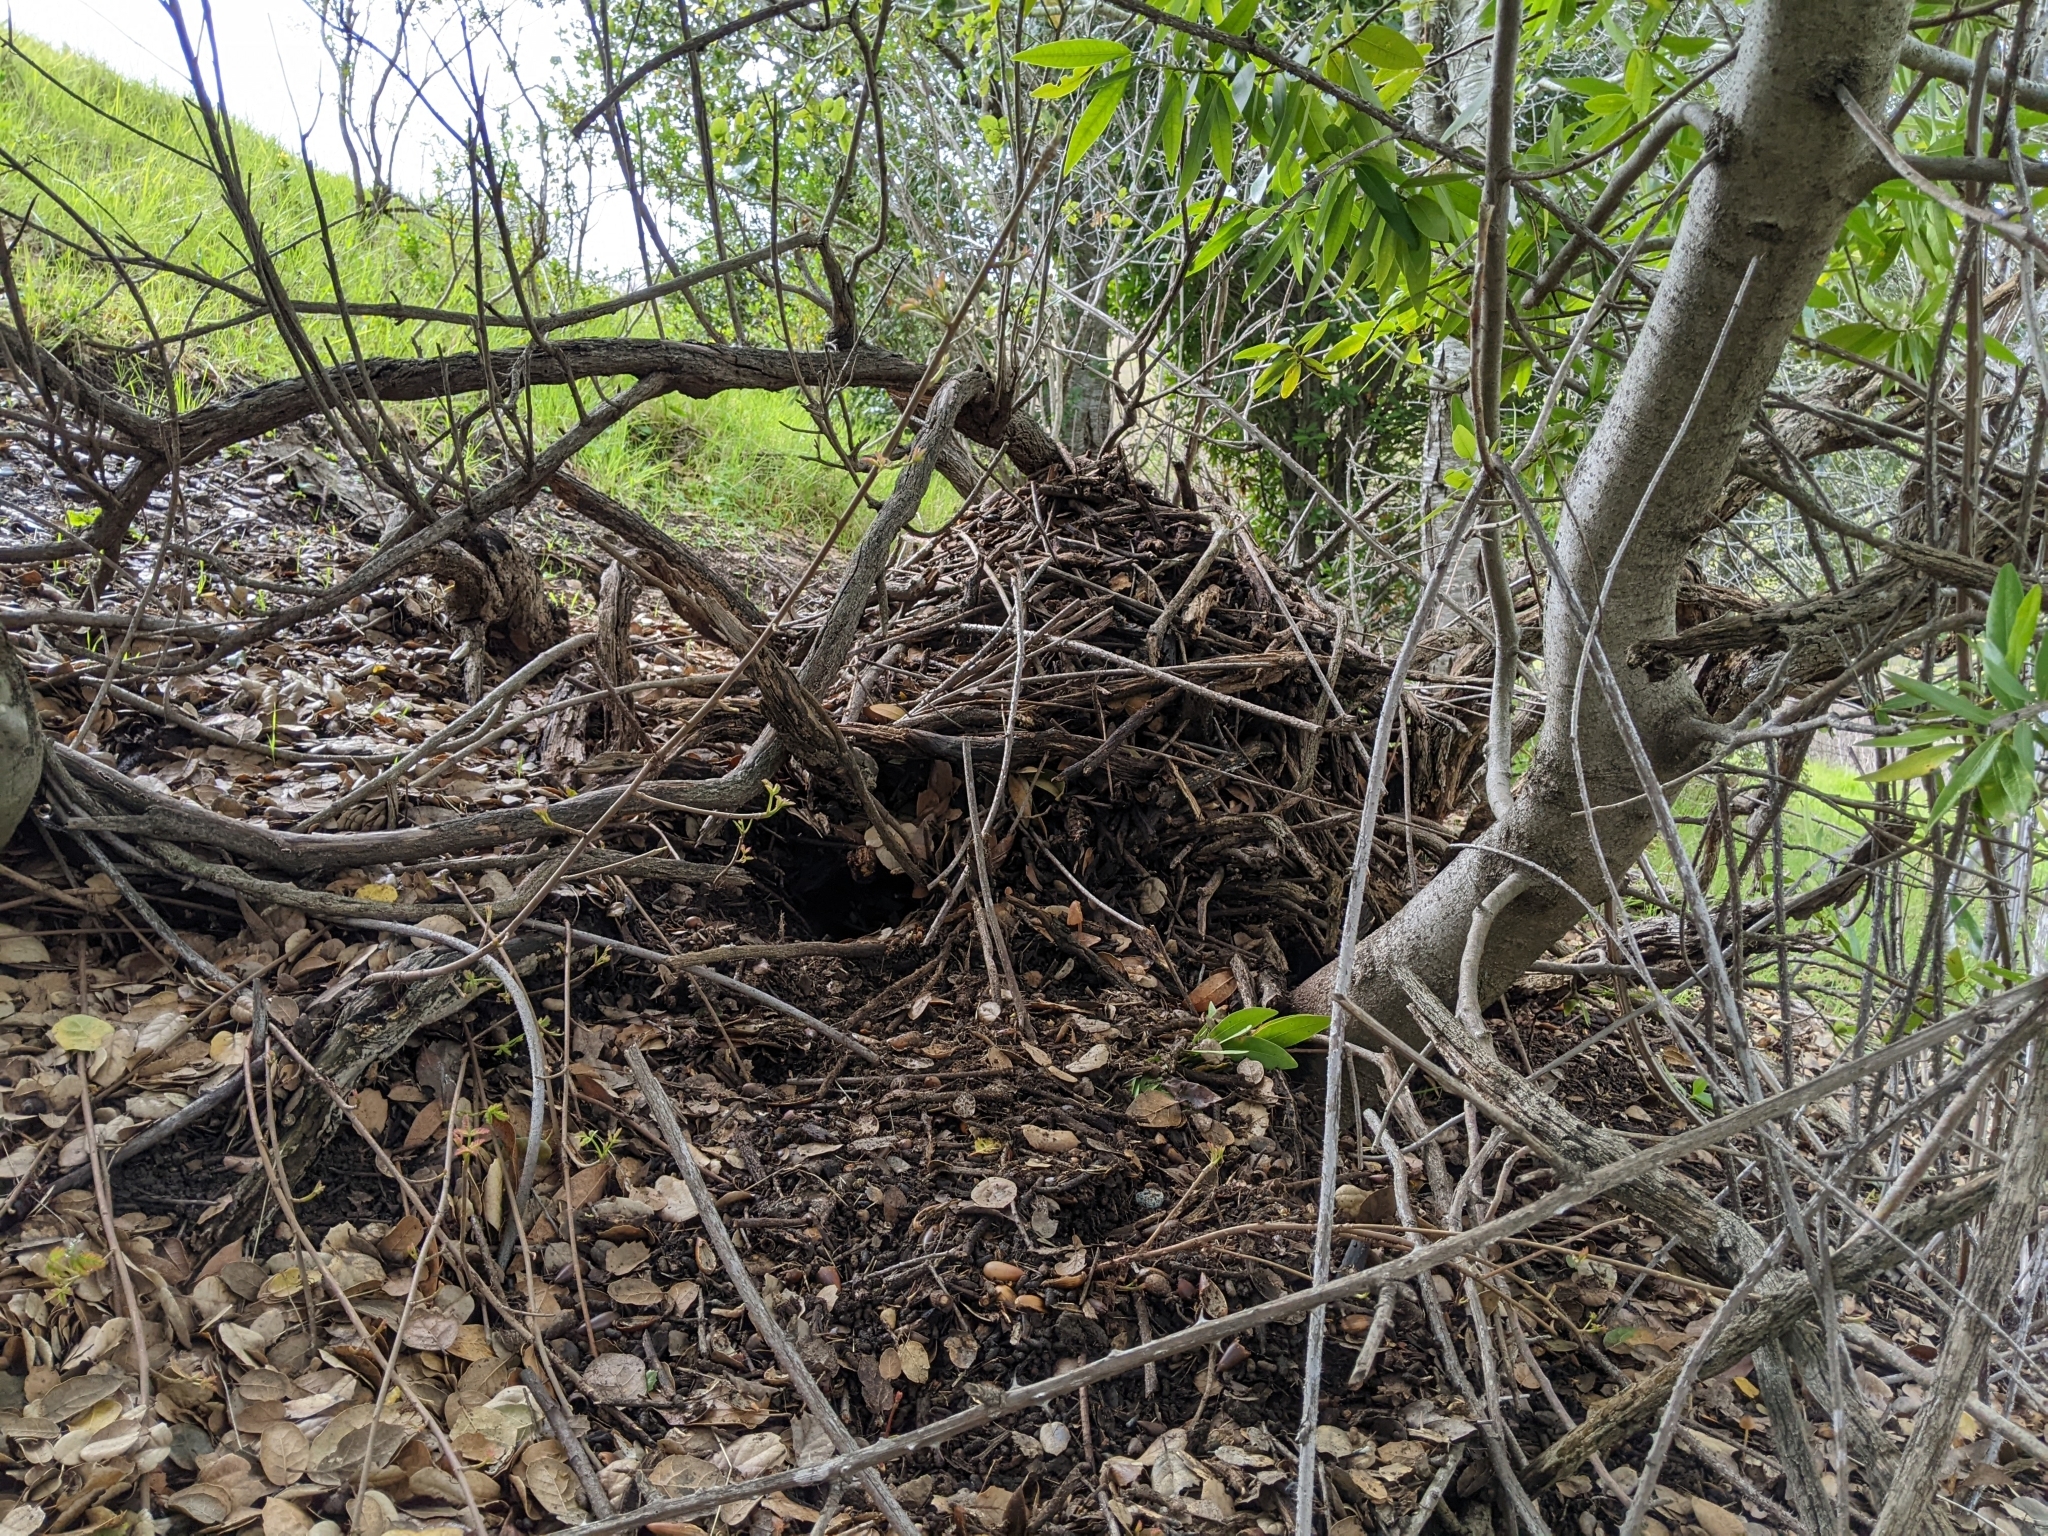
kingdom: Animalia
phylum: Chordata
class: Mammalia
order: Rodentia
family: Cricetidae
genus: Neotoma
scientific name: Neotoma fuscipes
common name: Dusky-footed woodrat
